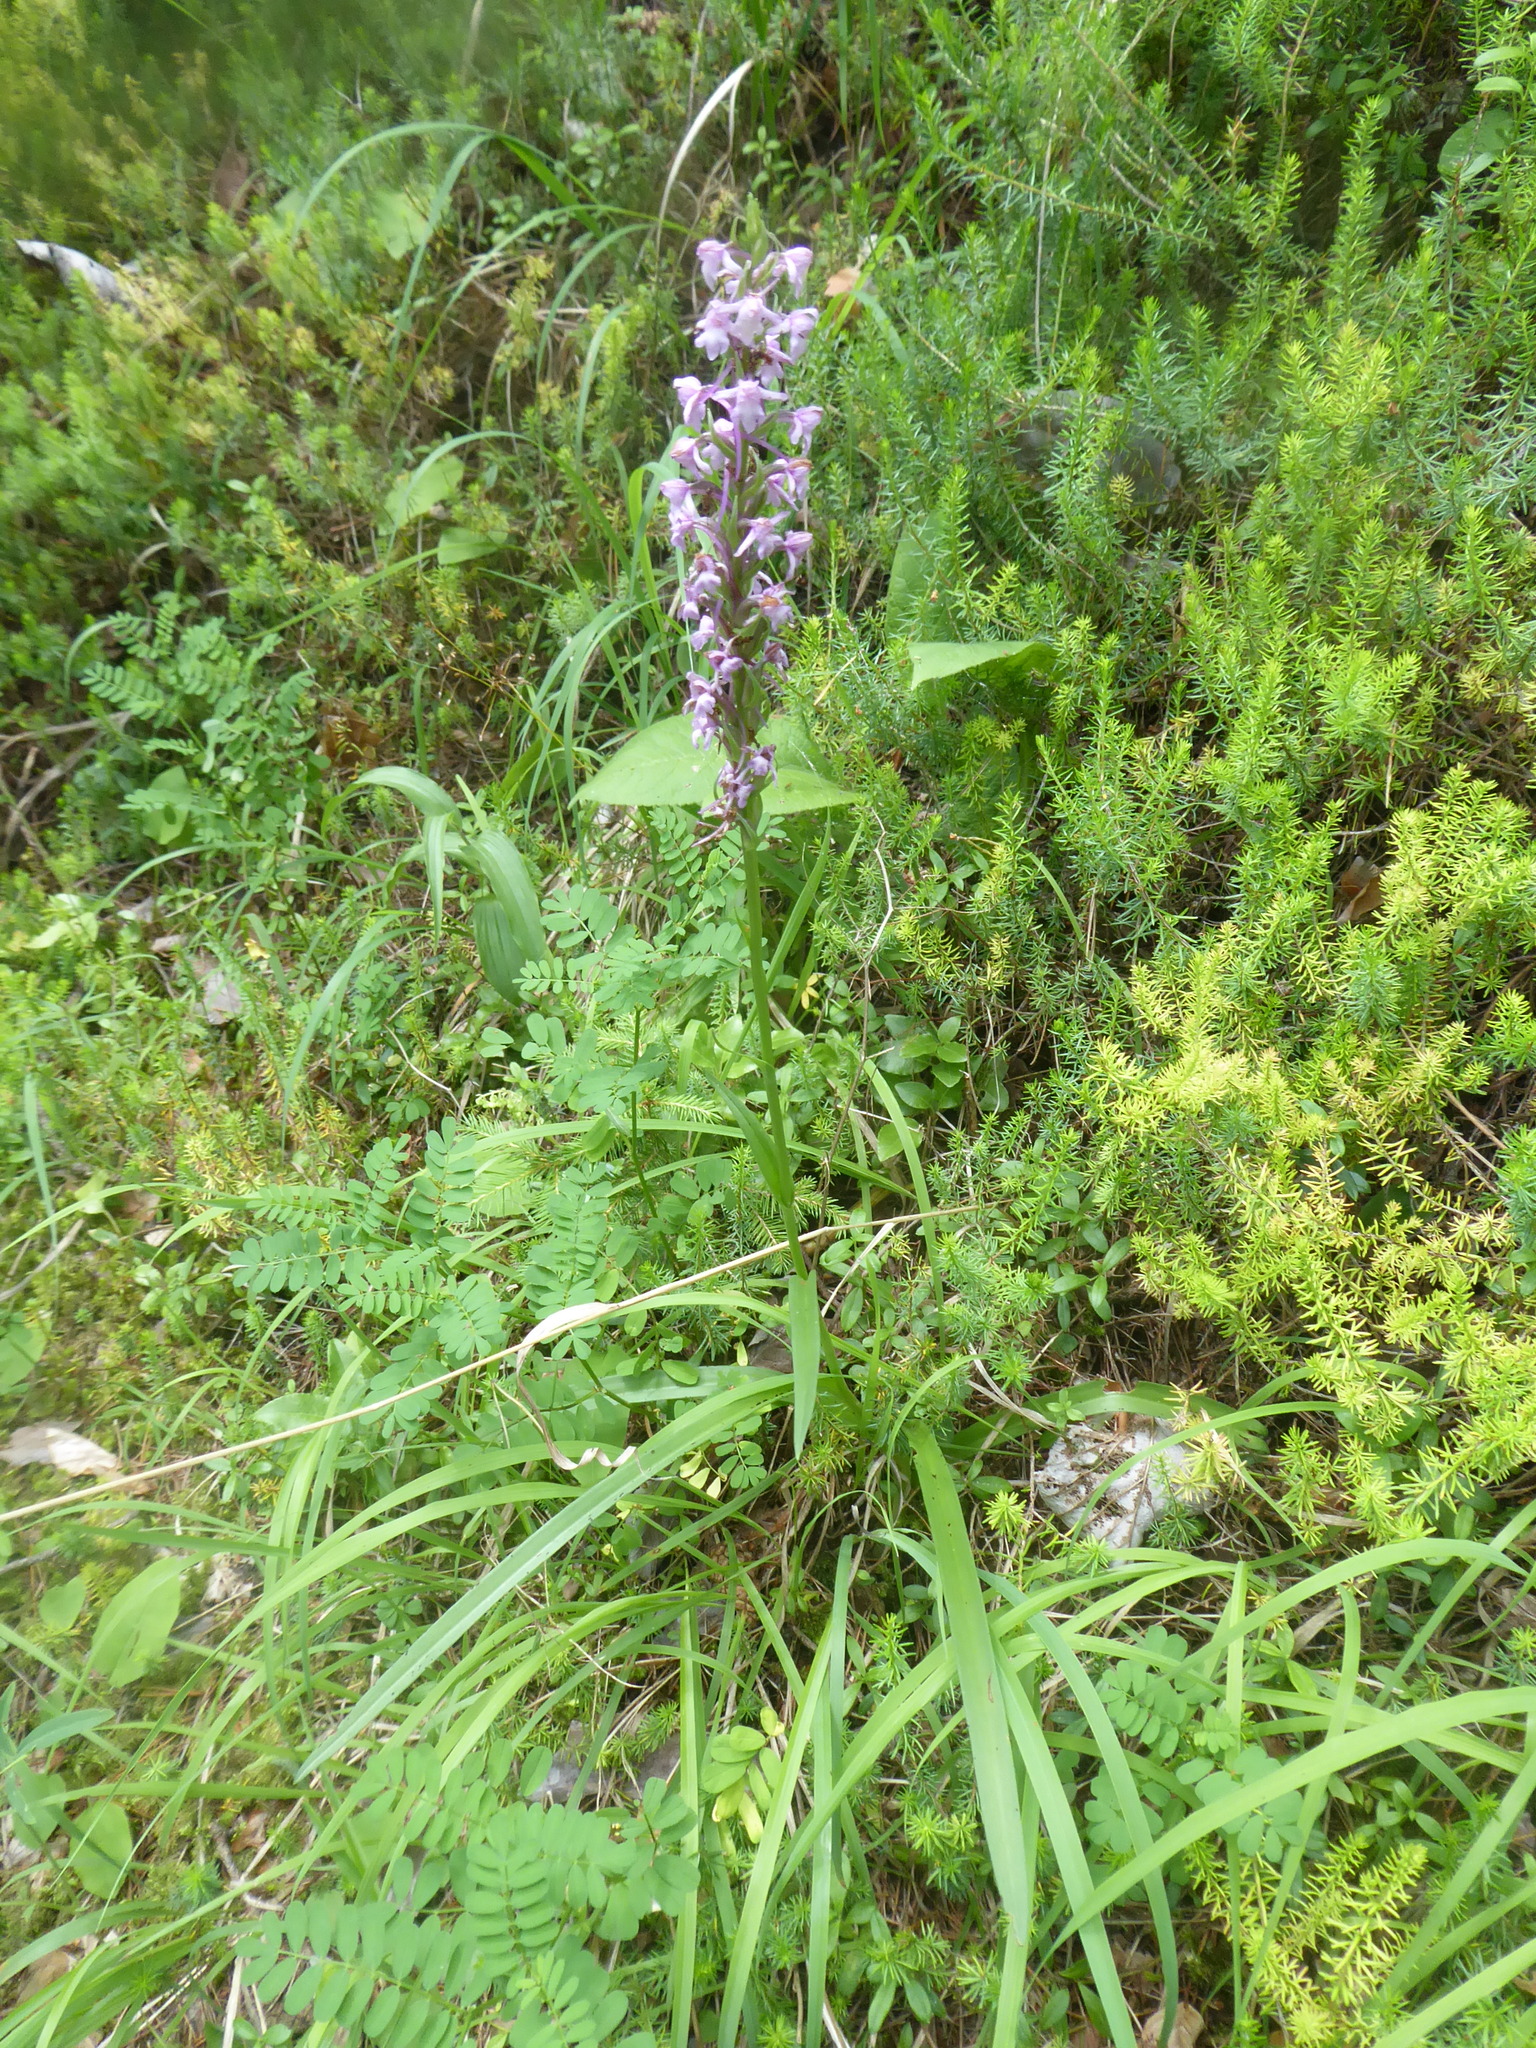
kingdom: Plantae
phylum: Tracheophyta
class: Liliopsida
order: Asparagales
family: Orchidaceae
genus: Gymnadenia
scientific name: Gymnadenia conopsea
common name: Fragrant orchid
